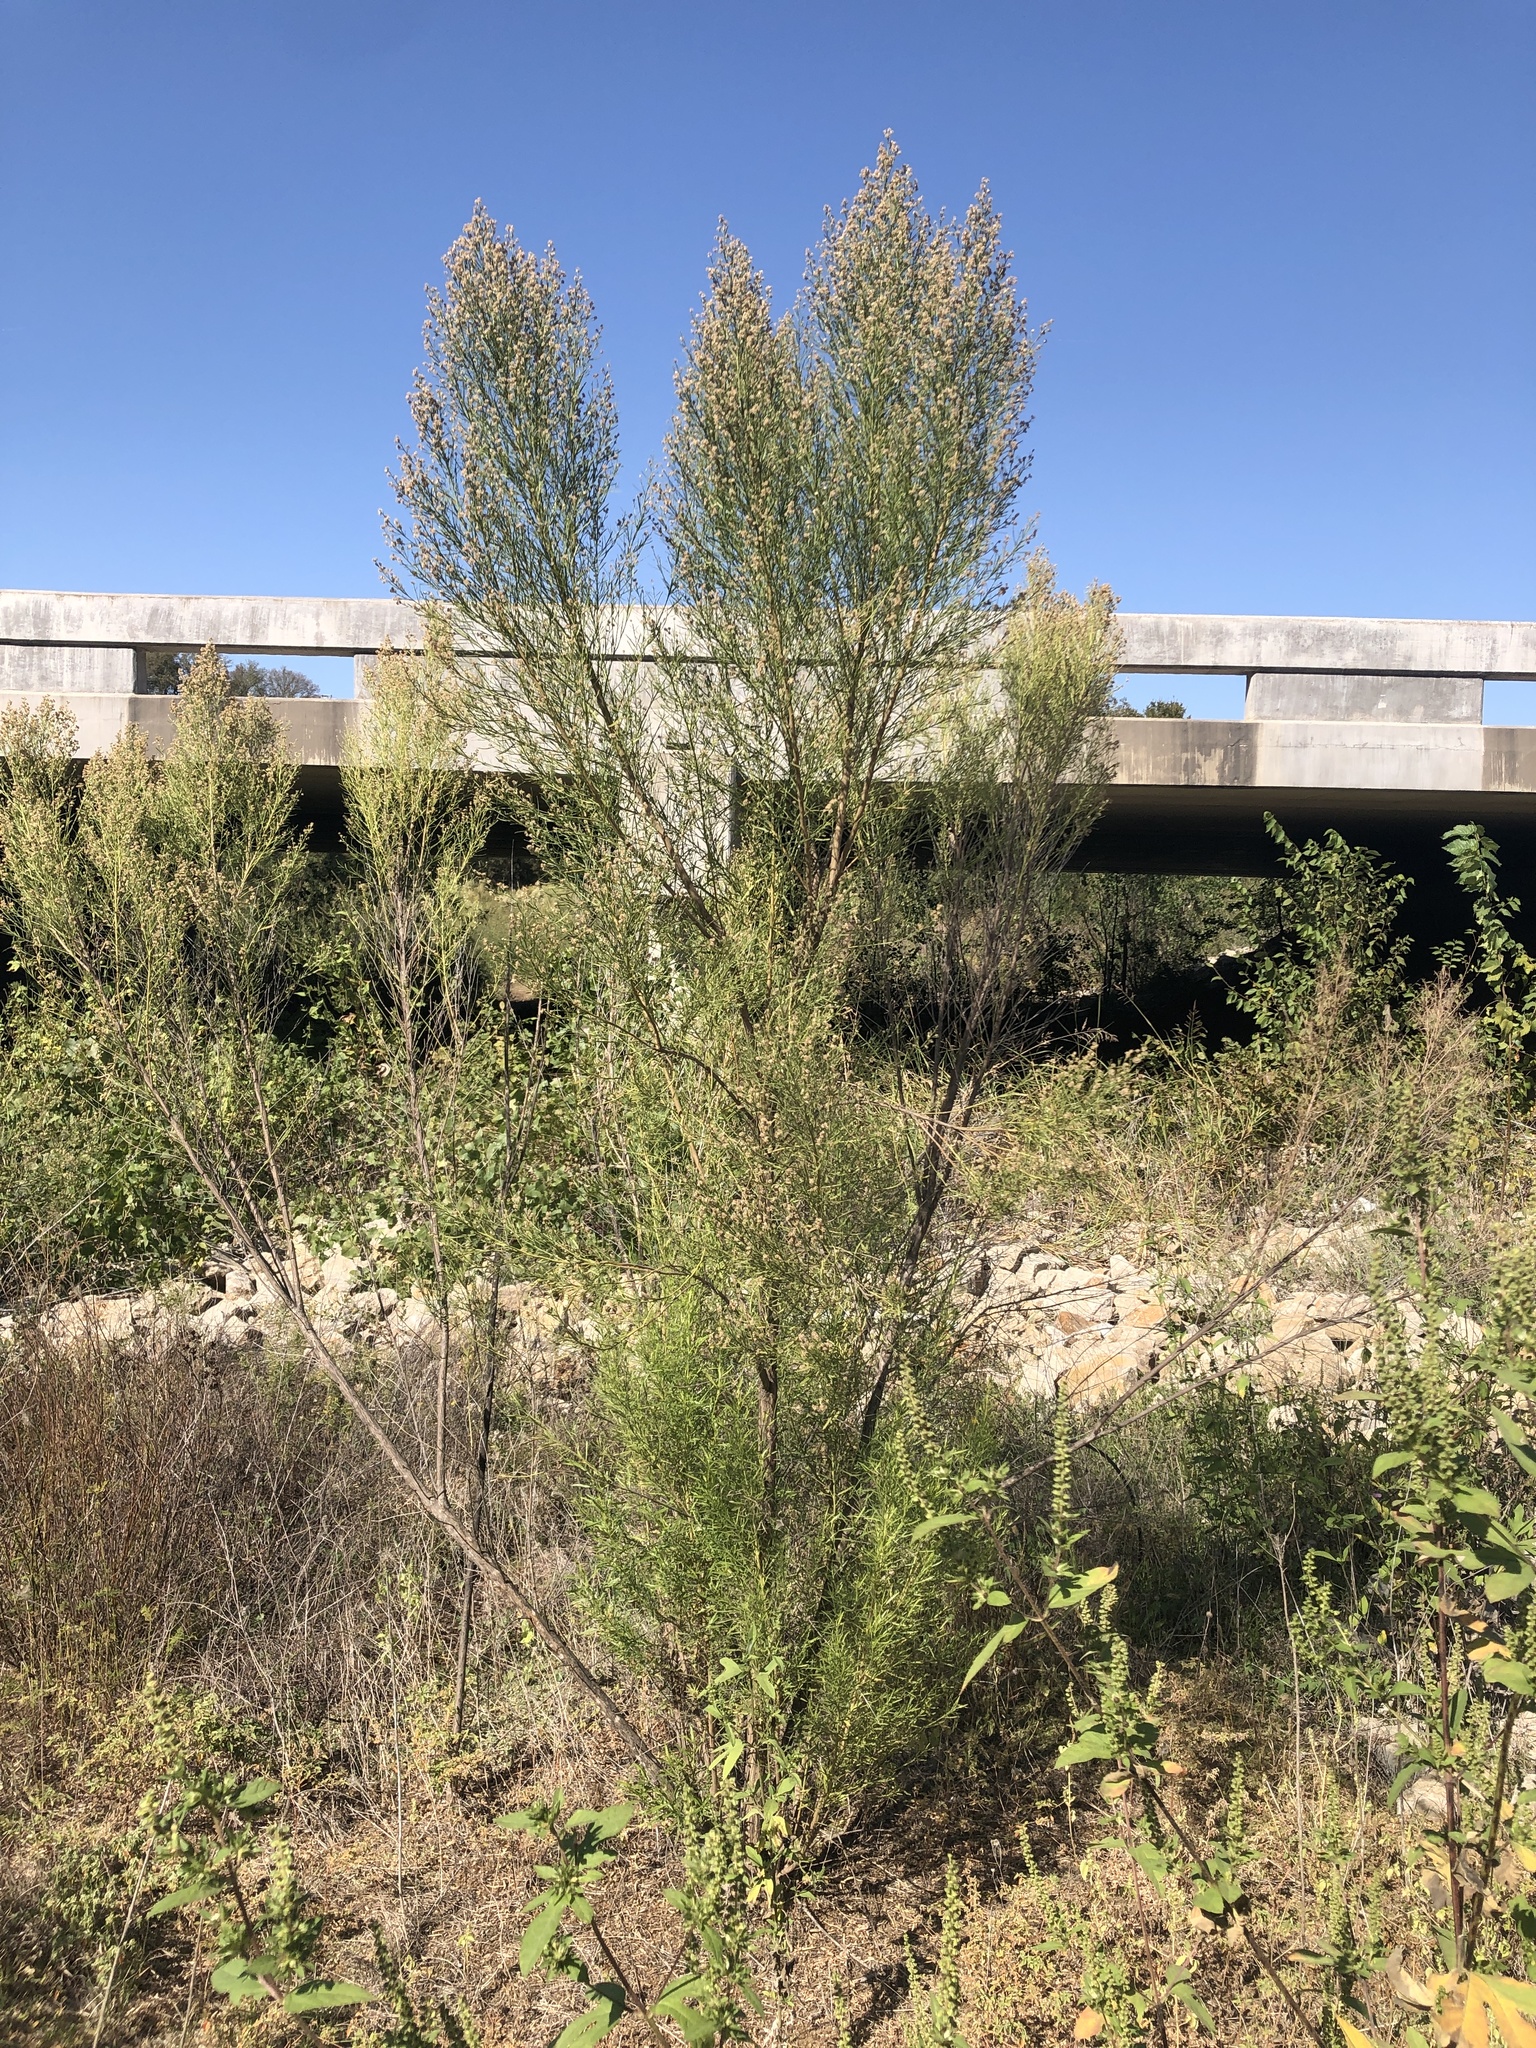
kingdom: Plantae
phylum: Tracheophyta
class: Magnoliopsida
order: Asterales
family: Asteraceae
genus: Baccharis
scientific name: Baccharis neglecta
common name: Roosevelt-weed
